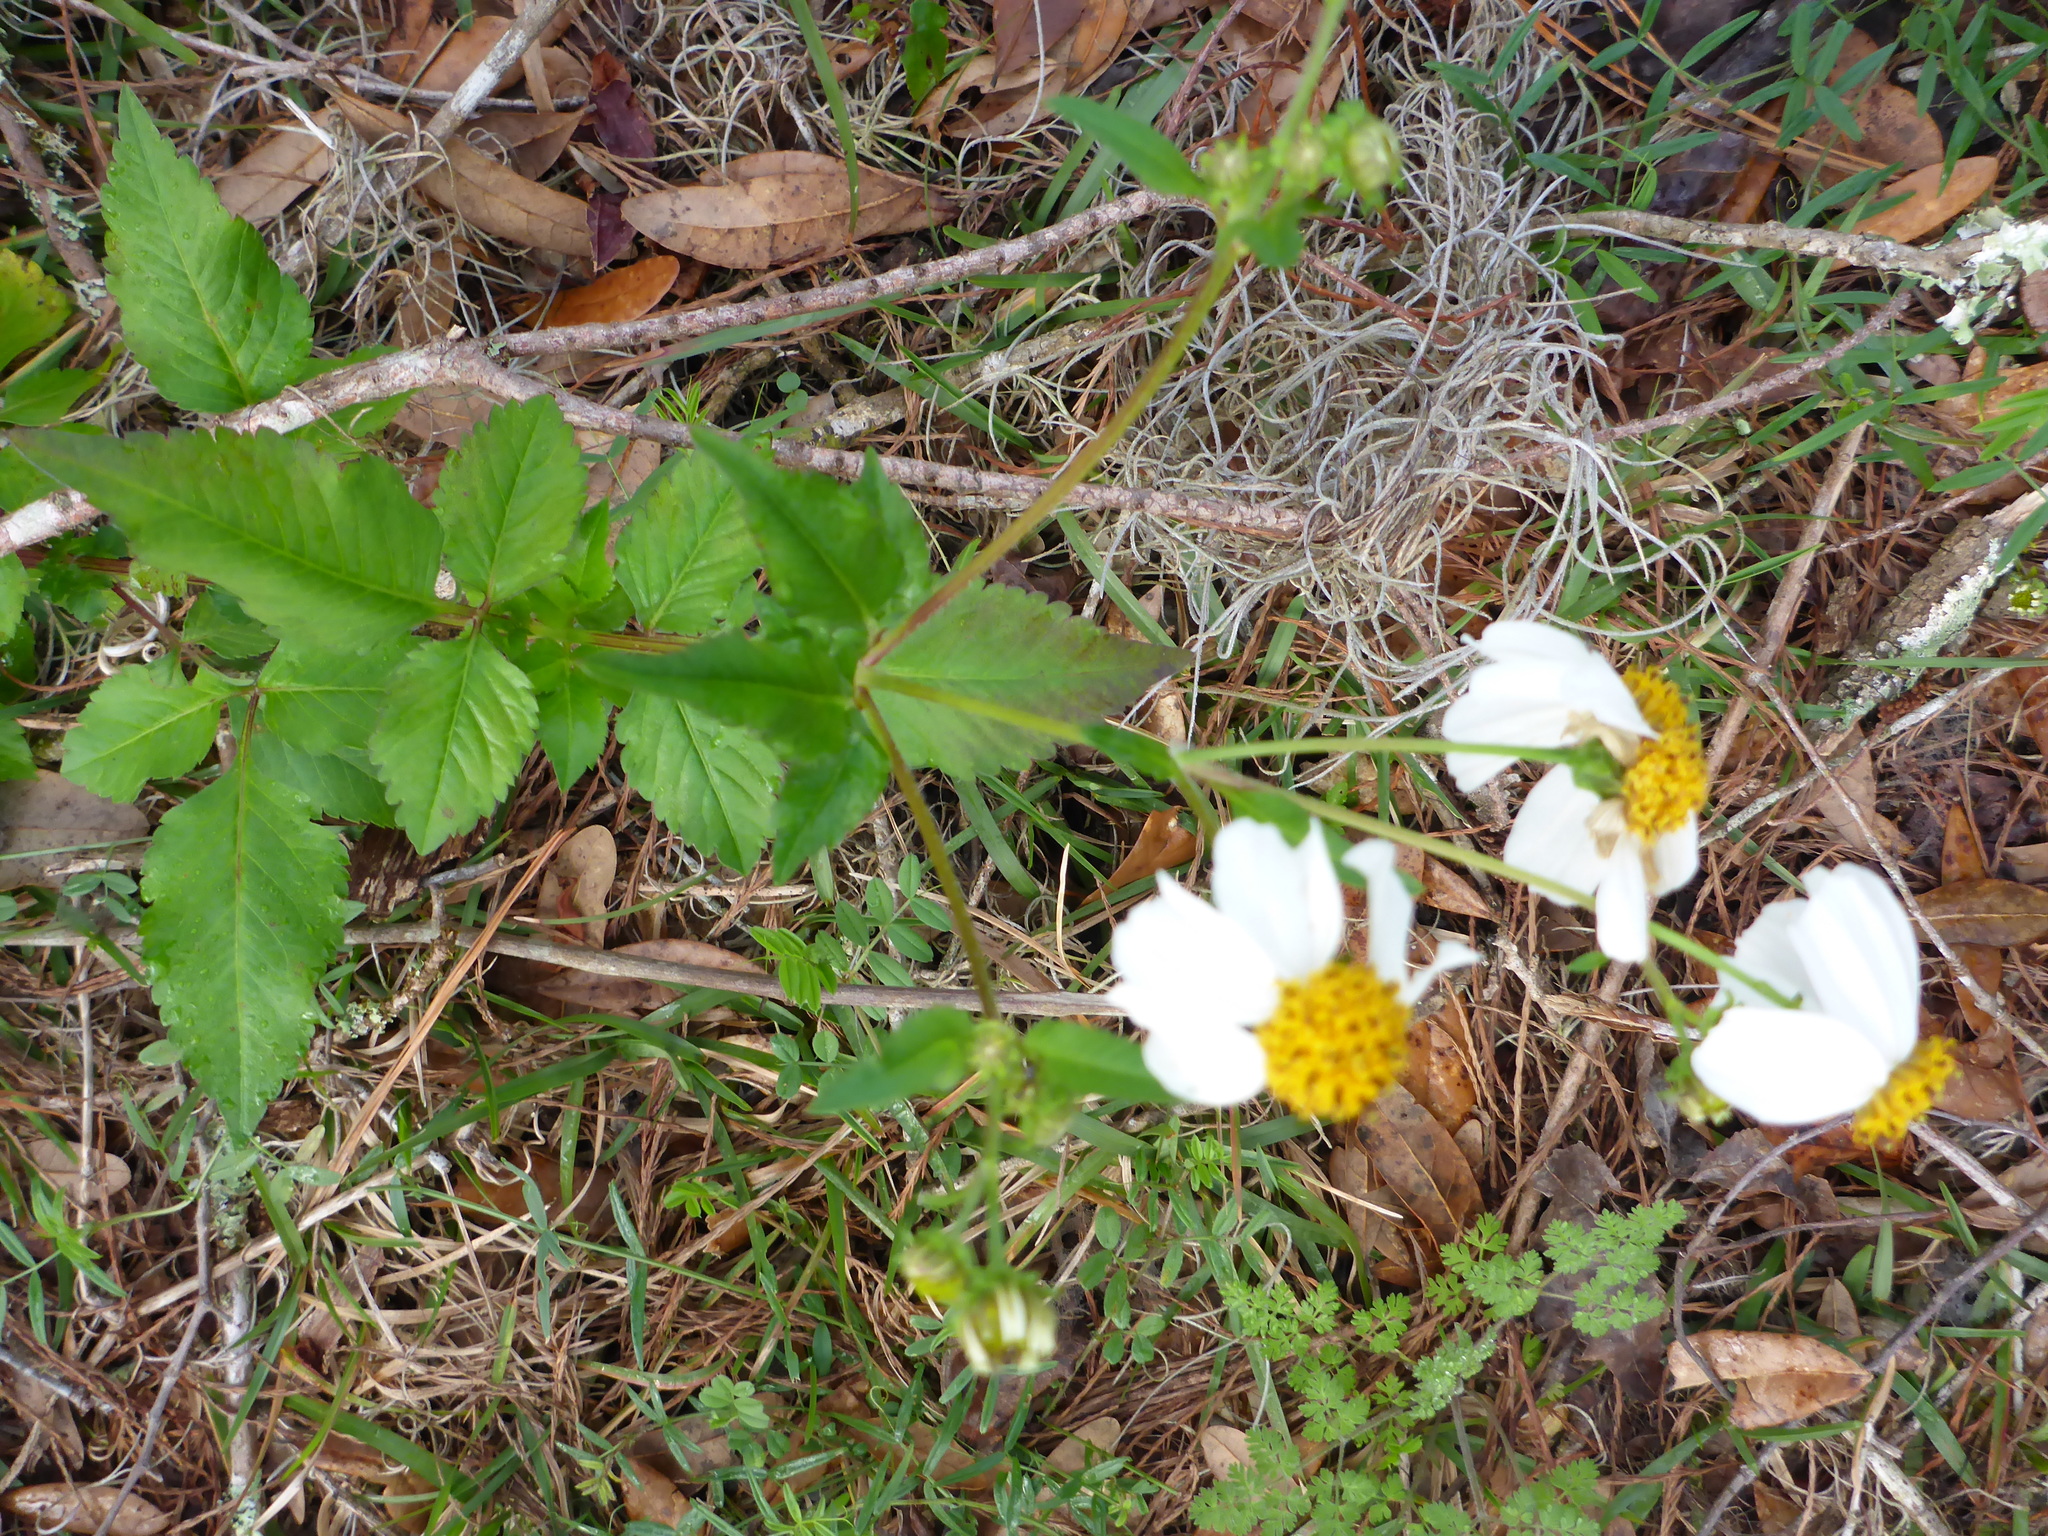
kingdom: Plantae
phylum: Tracheophyta
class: Magnoliopsida
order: Asterales
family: Asteraceae
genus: Bidens
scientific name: Bidens alba
